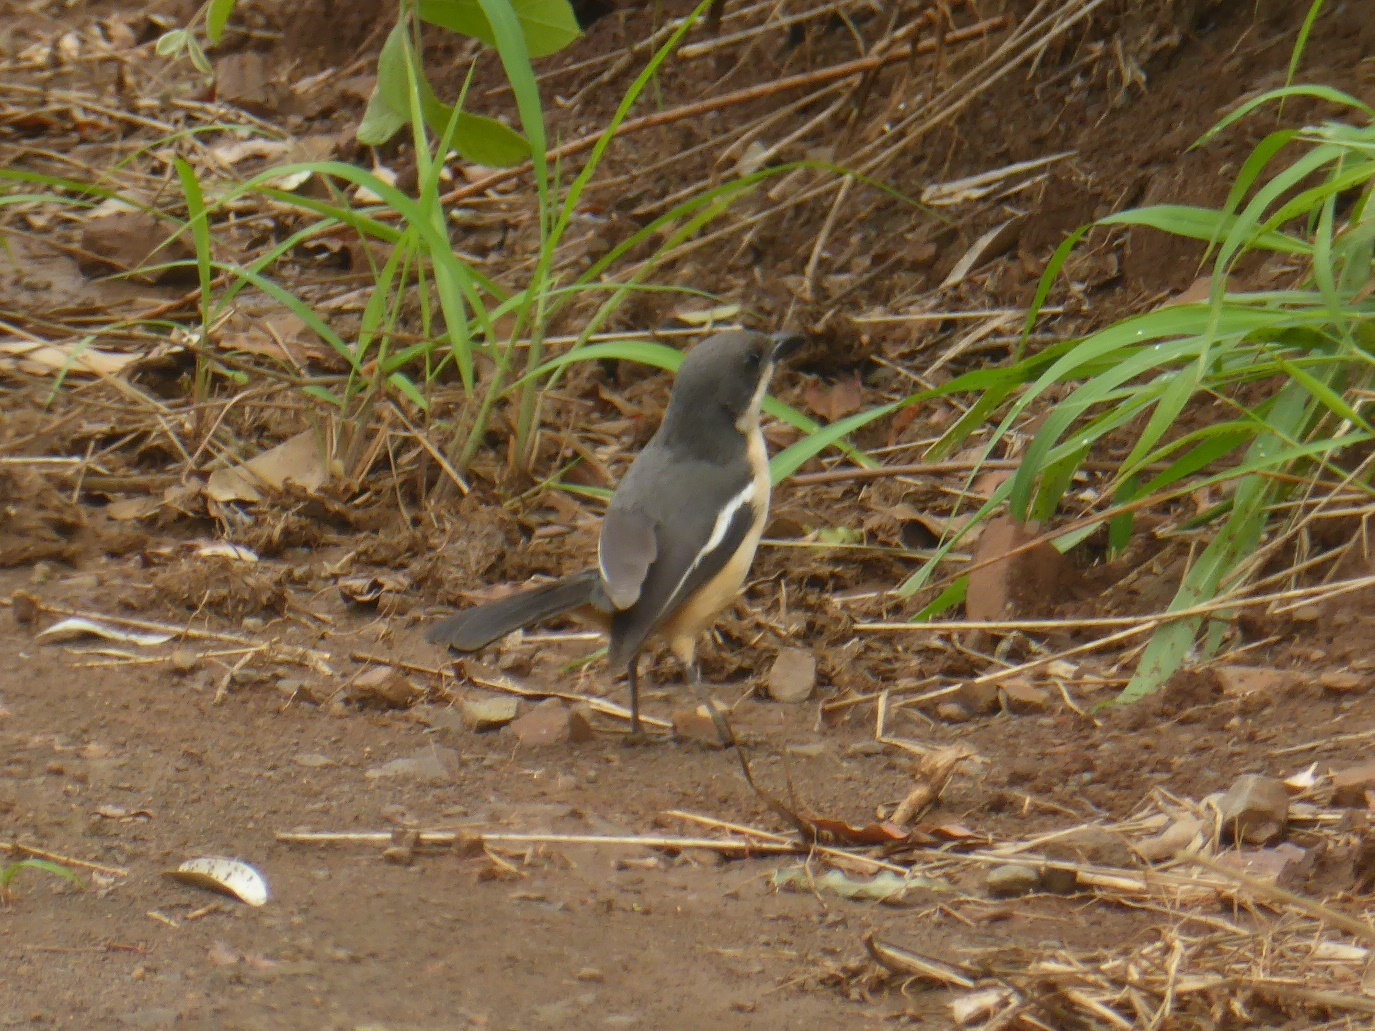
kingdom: Animalia
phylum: Chordata
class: Aves
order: Passeriformes
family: Malaconotidae
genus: Laniarius
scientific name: Laniarius ferrugineus
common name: Southern boubou
